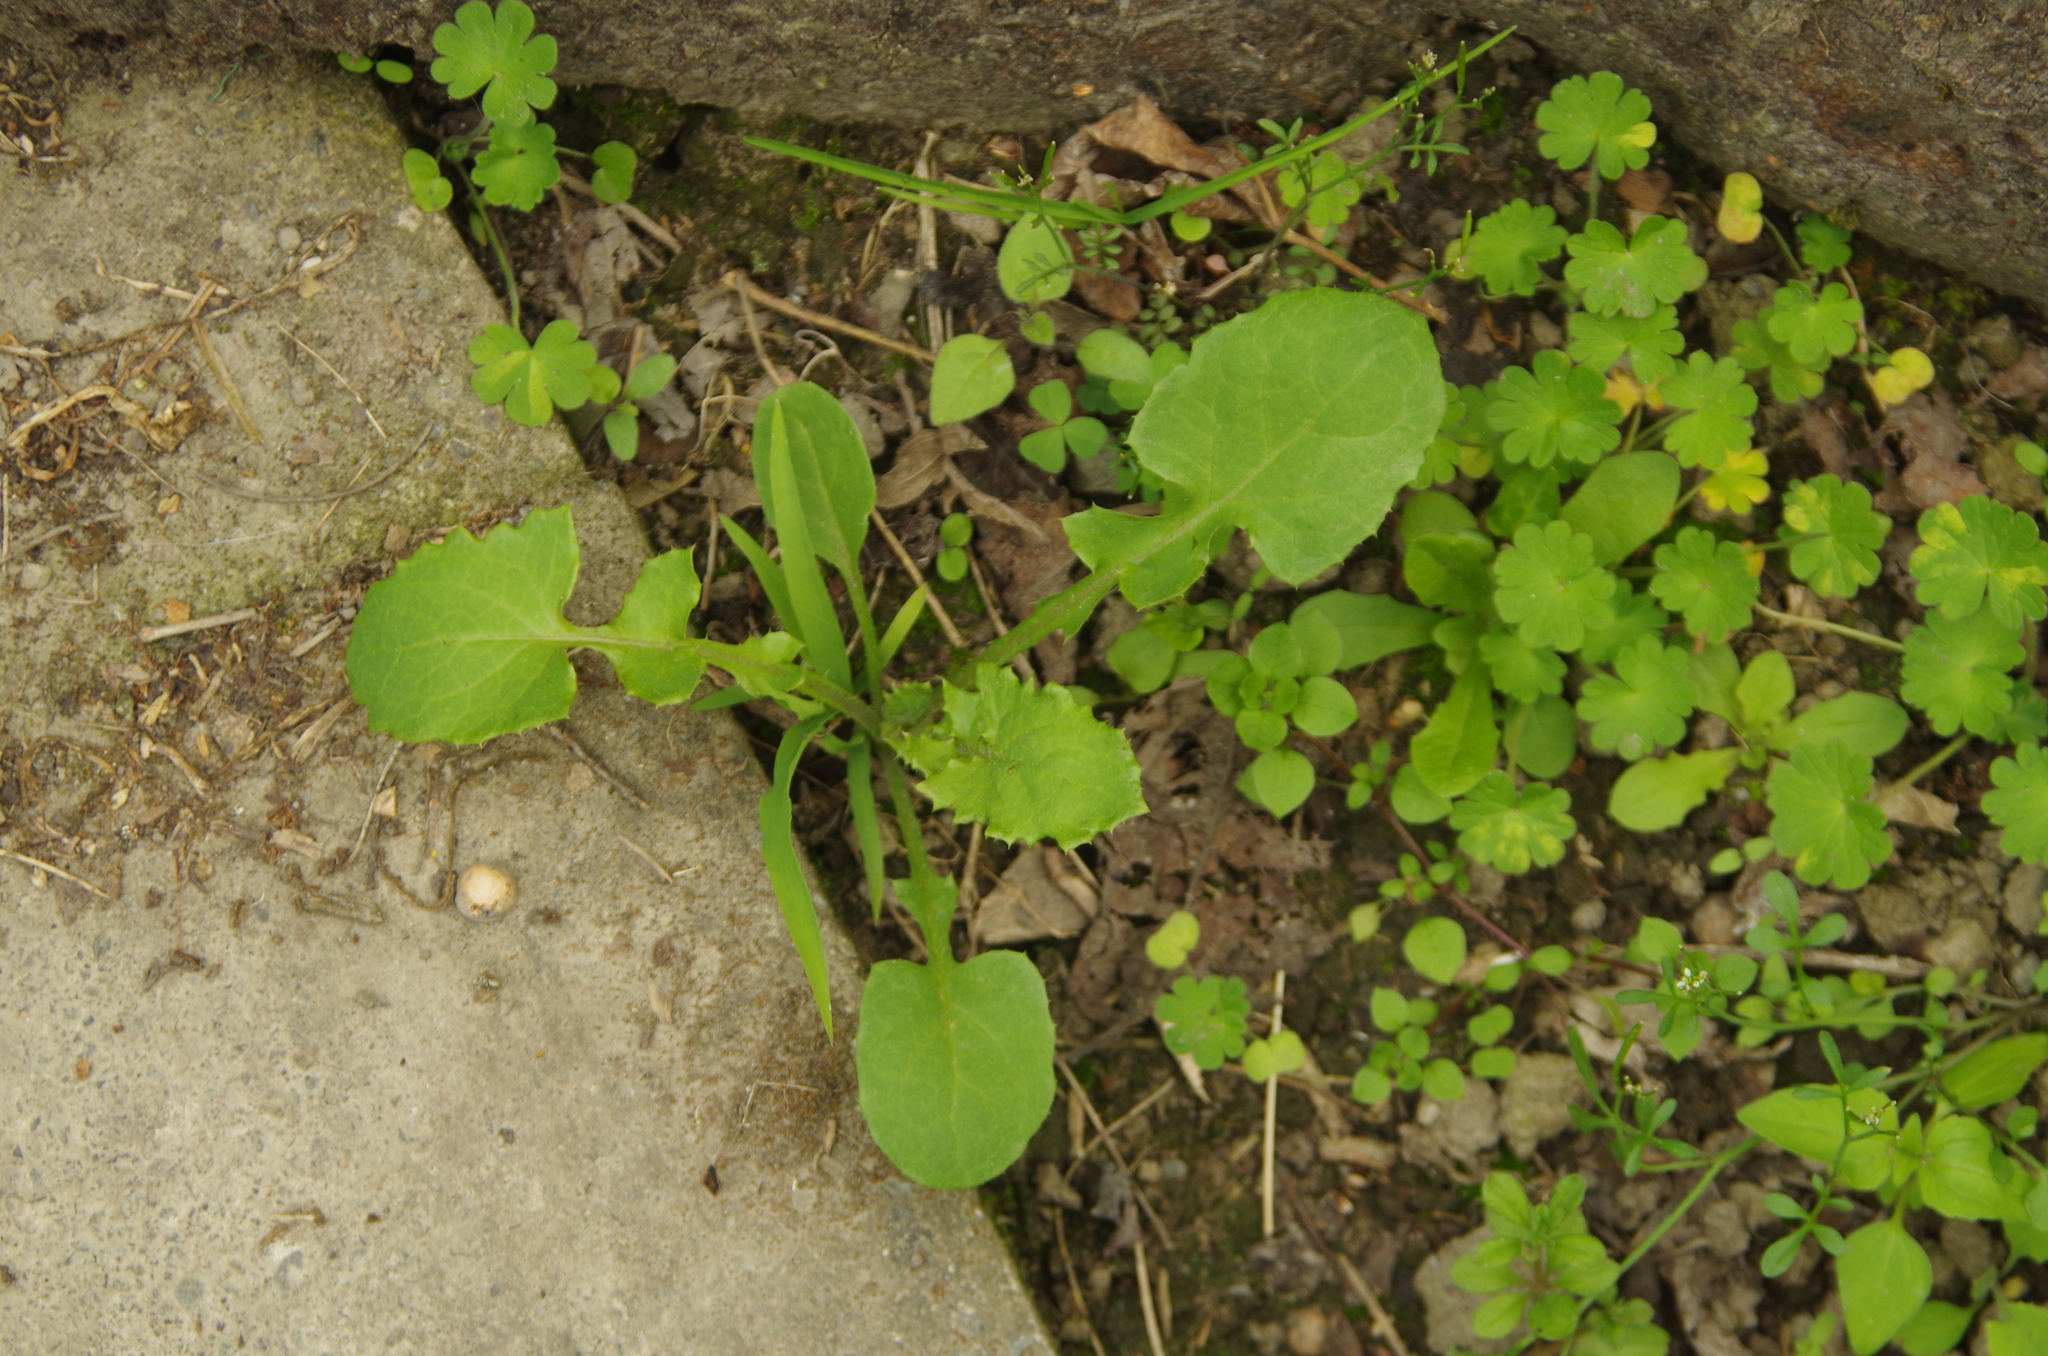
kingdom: Plantae
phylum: Tracheophyta
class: Magnoliopsida
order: Asterales
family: Asteraceae
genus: Sonchus
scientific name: Sonchus oleraceus
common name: Common sowthistle
